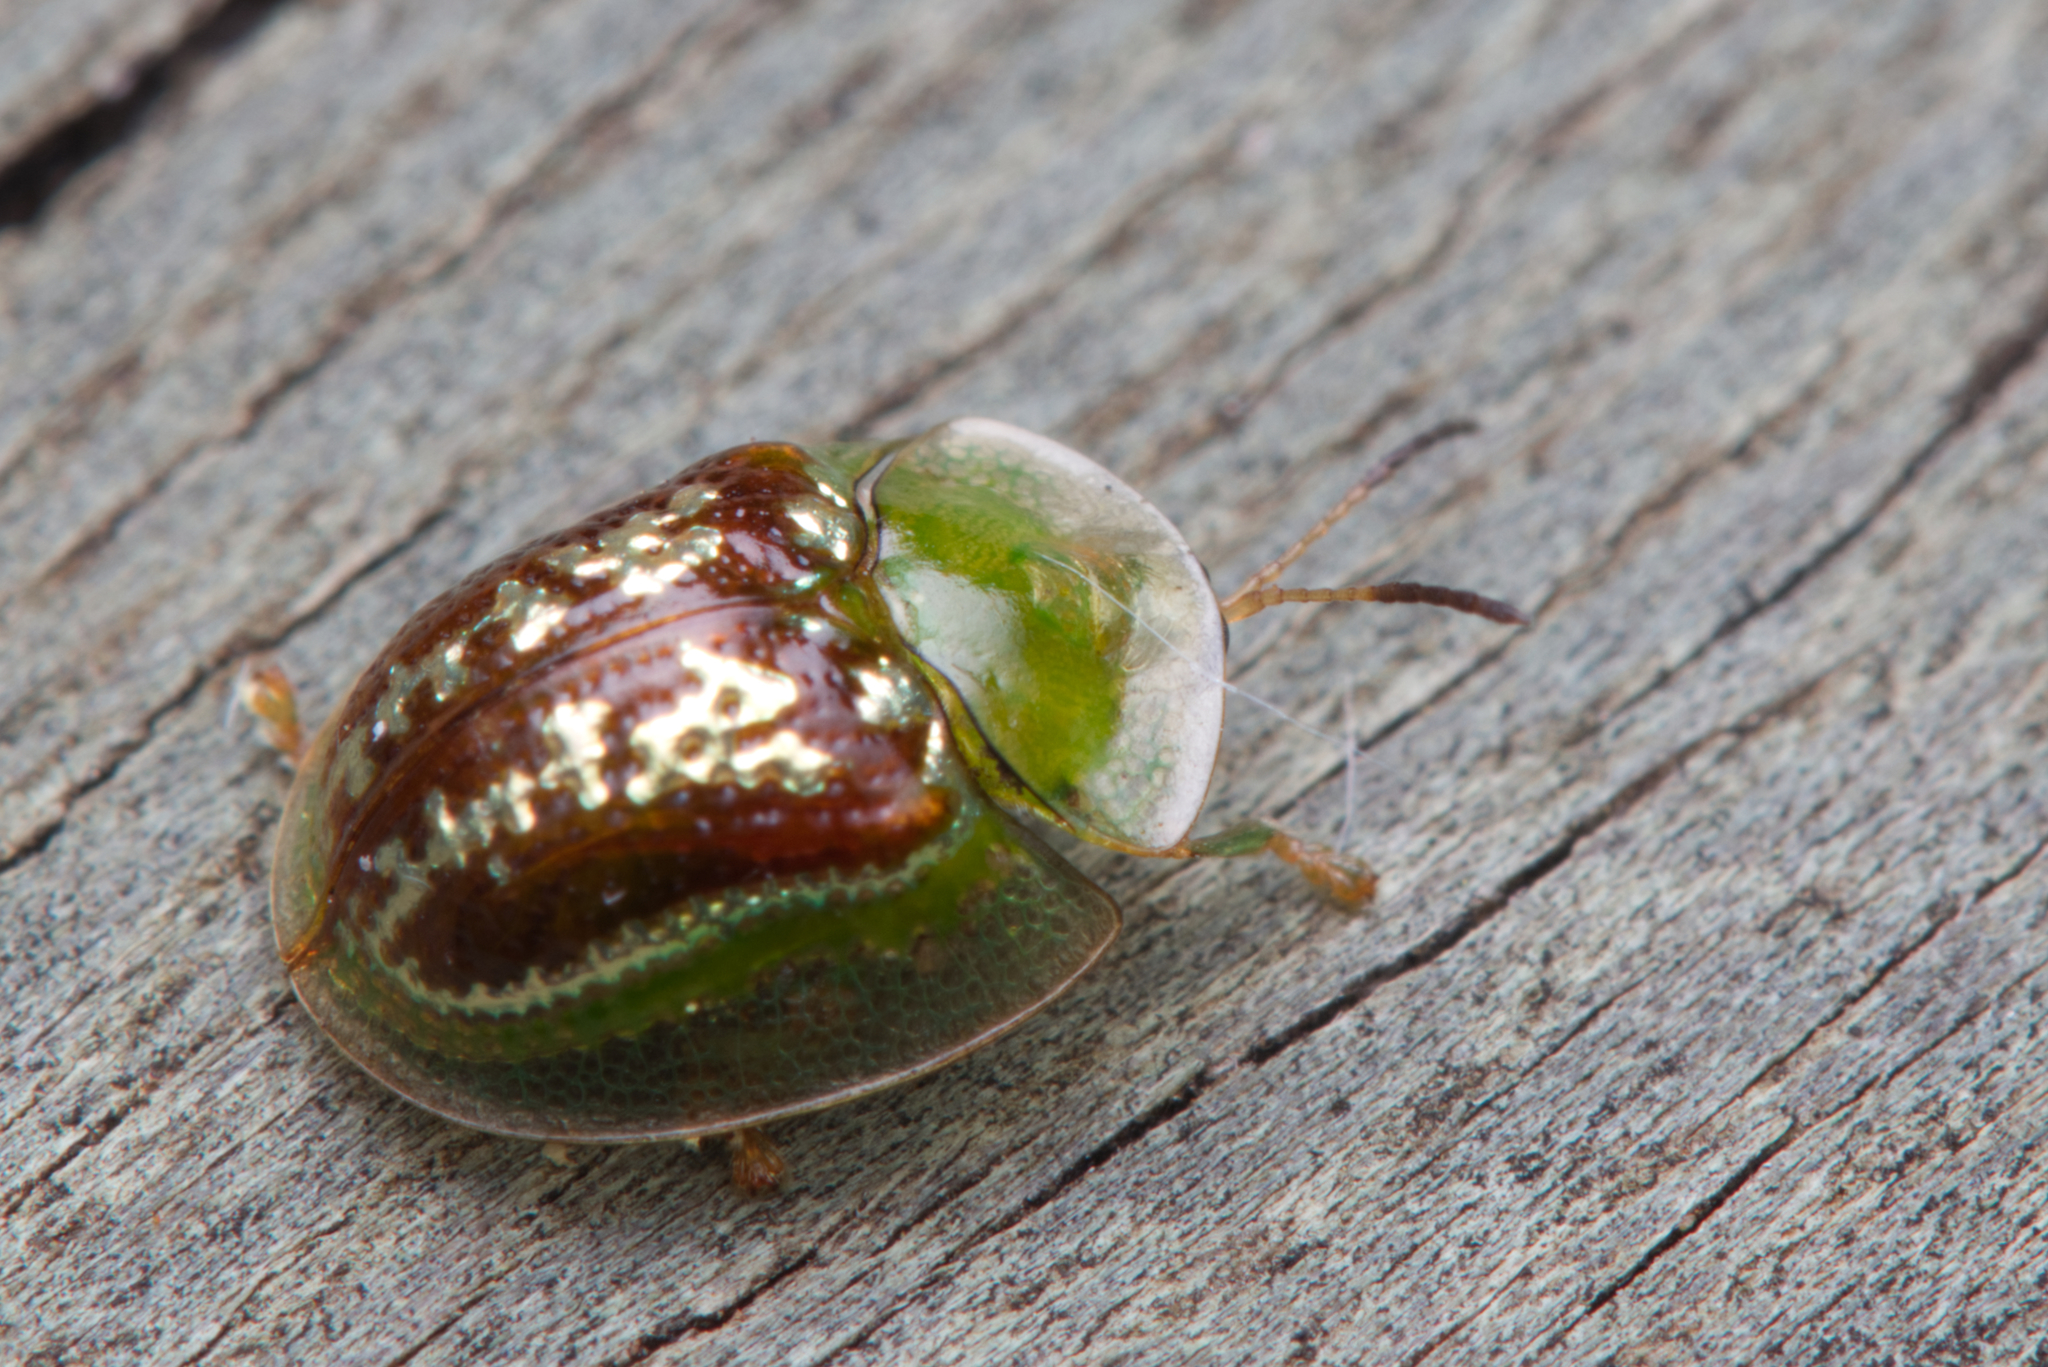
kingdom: Animalia
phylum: Arthropoda
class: Insecta
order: Coleoptera
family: Chrysomelidae
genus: Cassida
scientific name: Cassida compuncta
